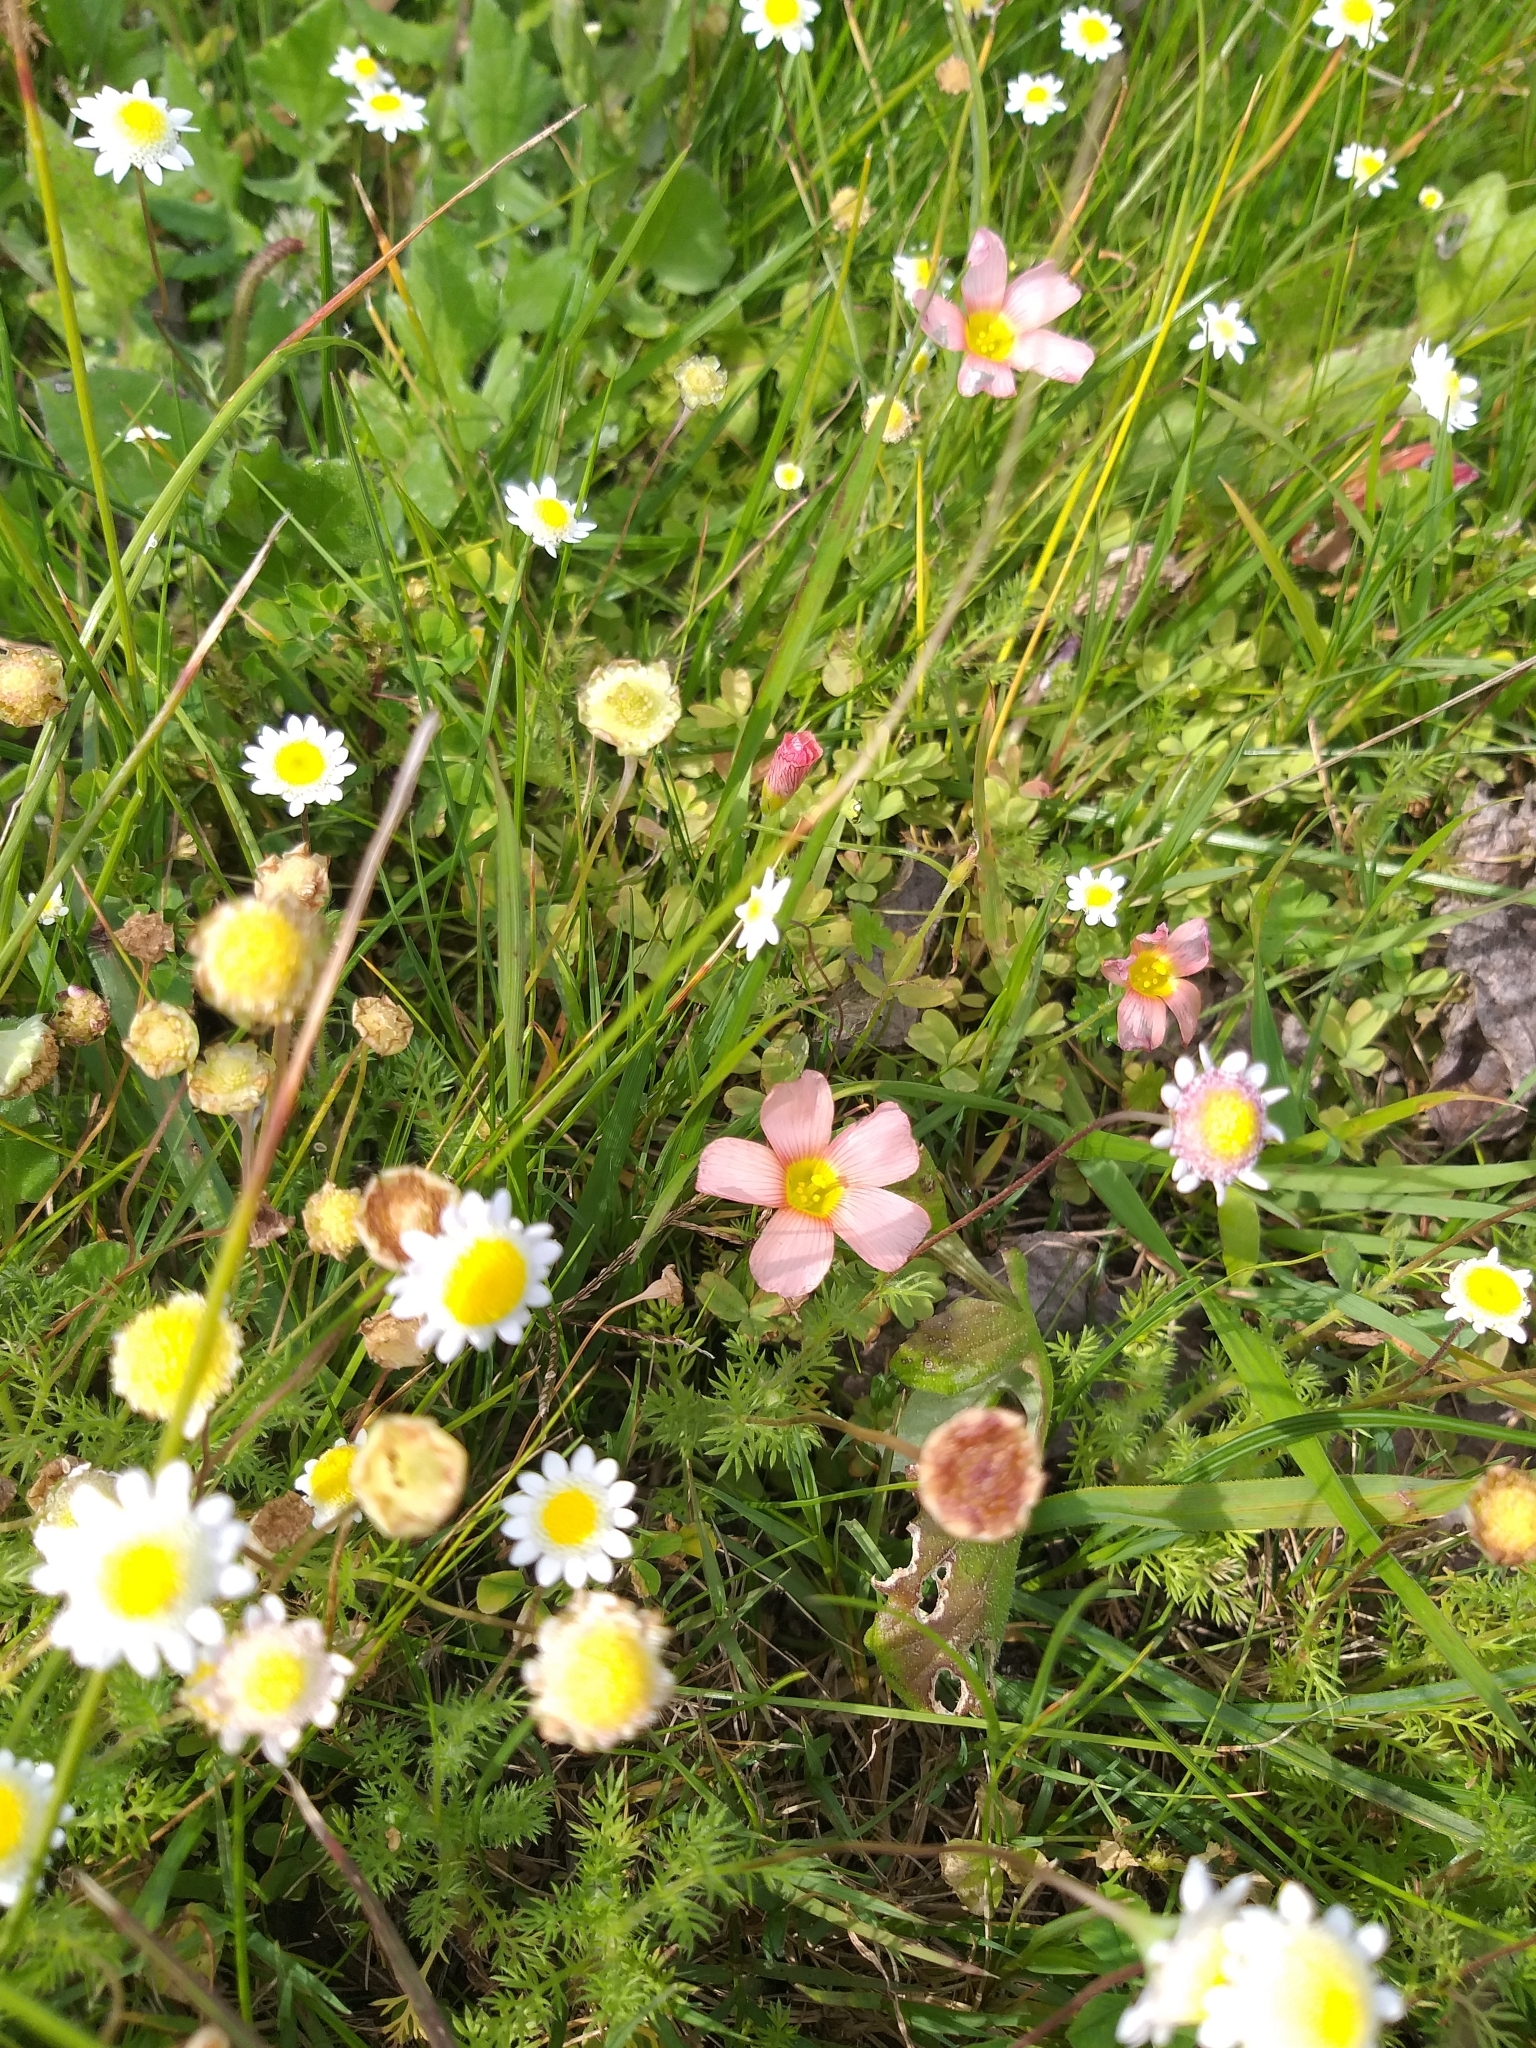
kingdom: Plantae
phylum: Tracheophyta
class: Magnoliopsida
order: Asterales
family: Asteraceae
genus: Cotula
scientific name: Cotula turbinata
